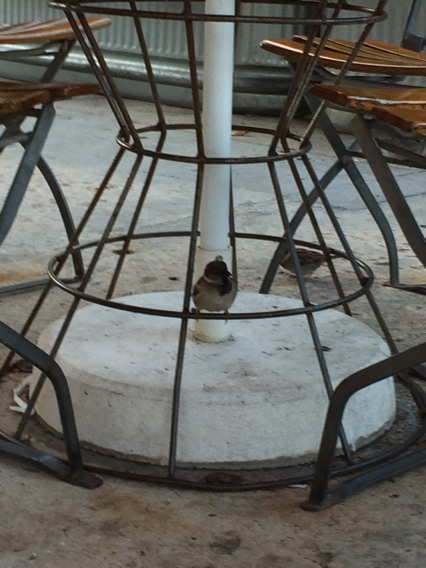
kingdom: Animalia
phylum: Chordata
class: Aves
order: Passeriformes
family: Passeridae
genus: Passer
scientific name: Passer domesticus
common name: House sparrow
